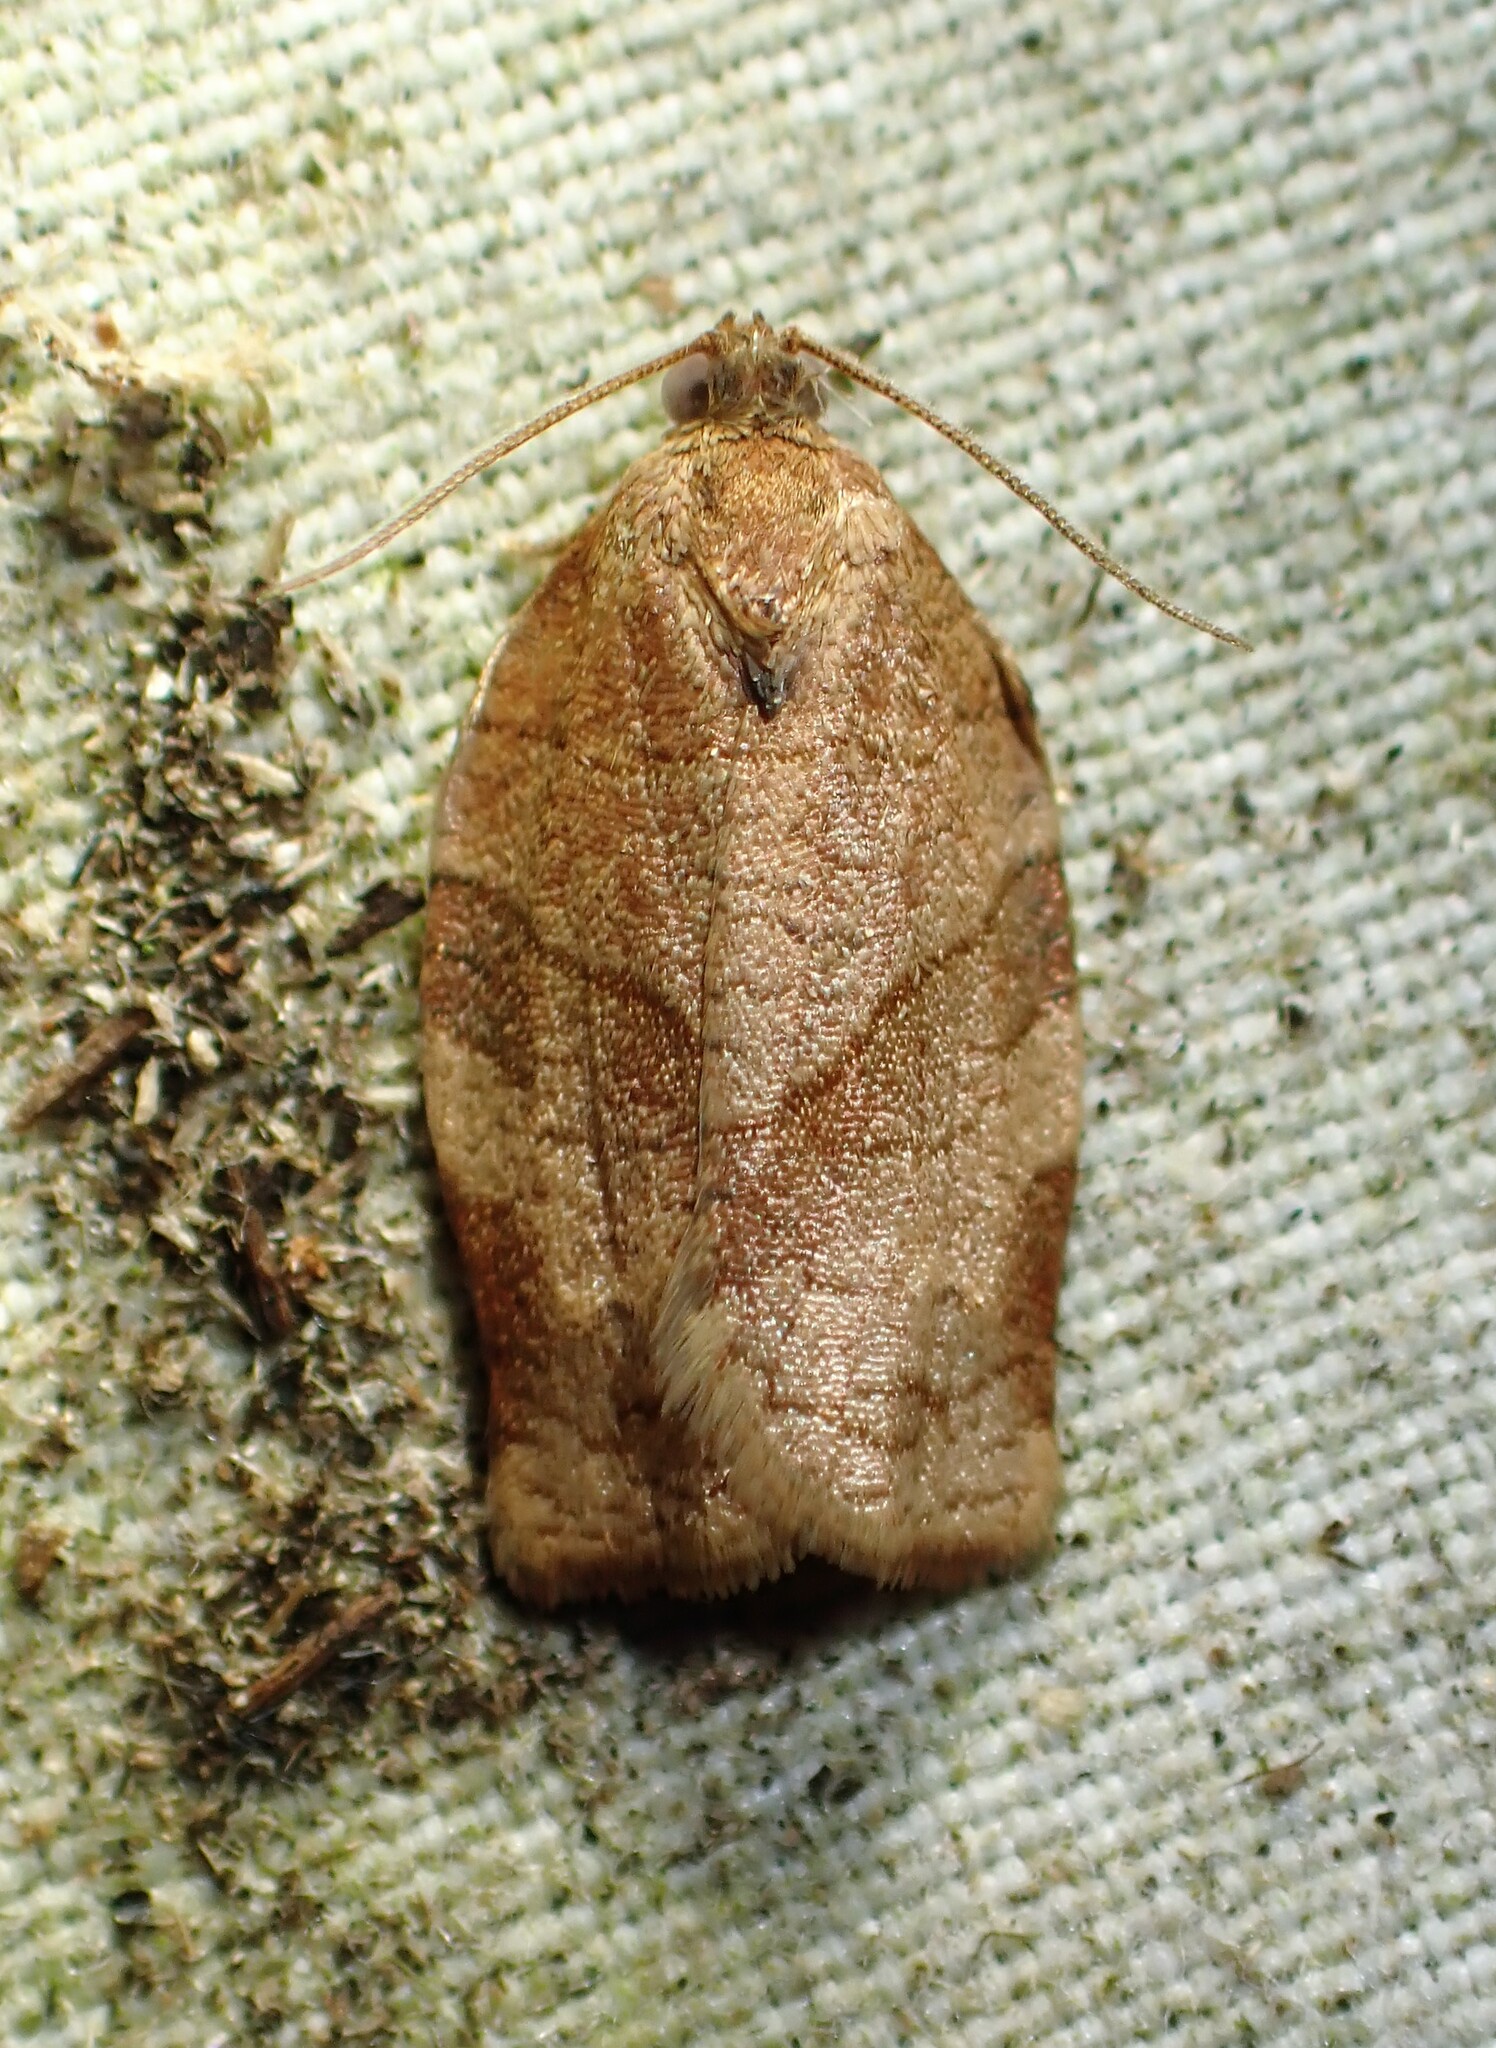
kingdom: Animalia
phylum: Arthropoda
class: Insecta
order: Lepidoptera
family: Tortricidae
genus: Choristoneura
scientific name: Choristoneura rosaceana
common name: Oblique-banded leafroller moth
